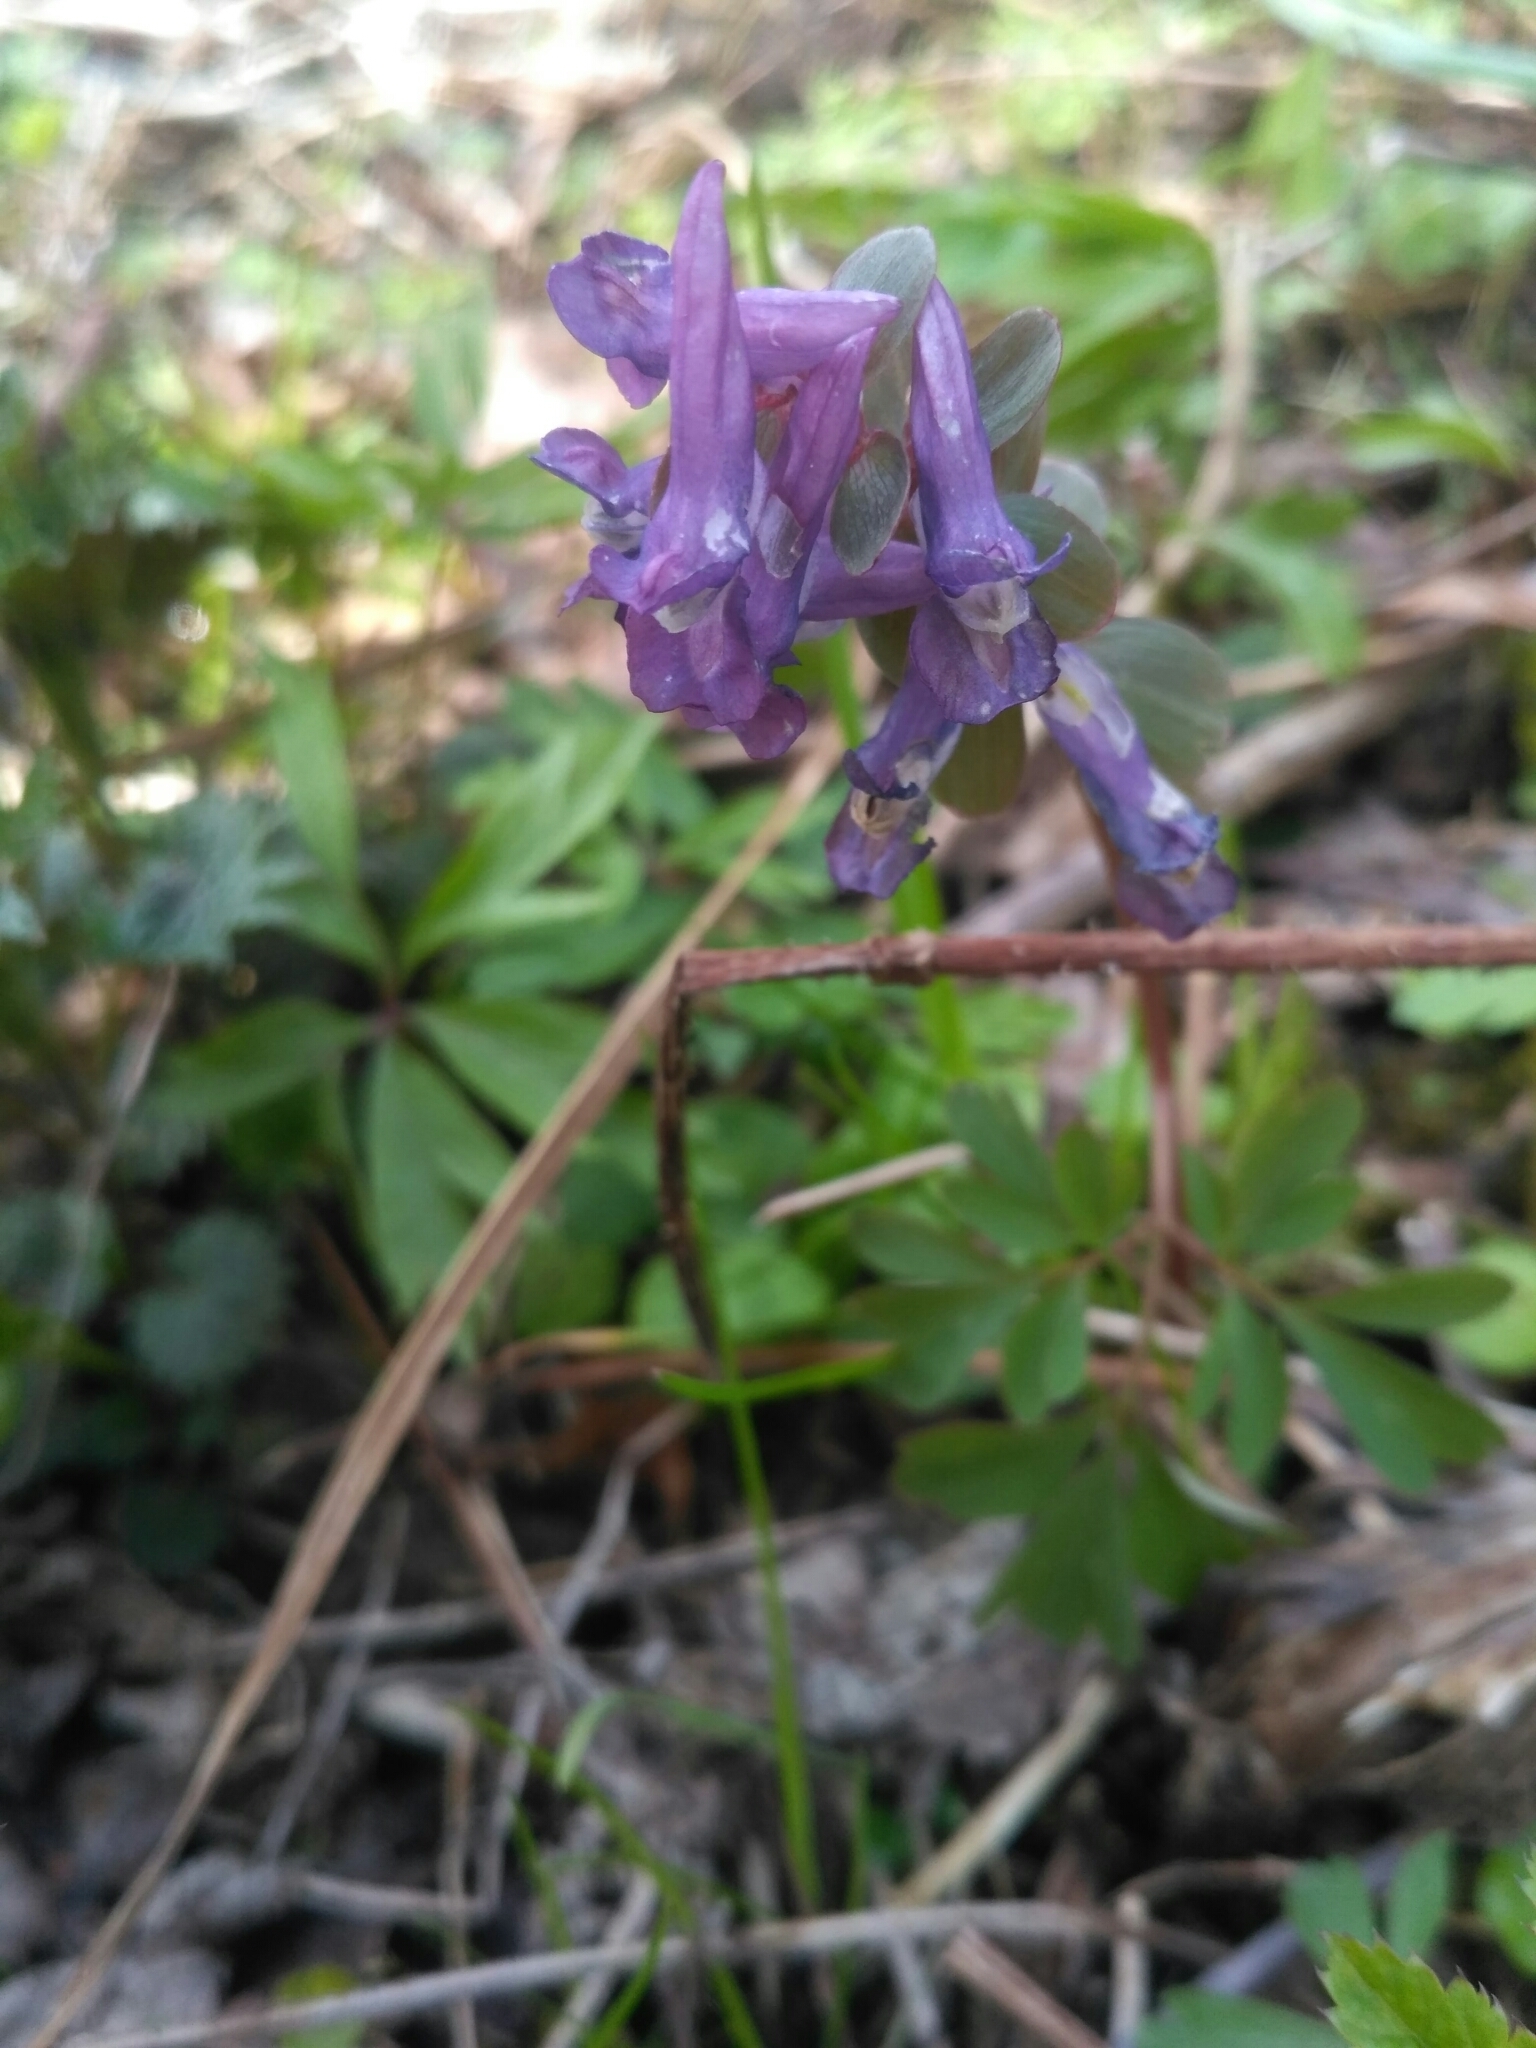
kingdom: Plantae
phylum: Tracheophyta
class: Magnoliopsida
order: Ranunculales
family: Papaveraceae
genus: Corydalis
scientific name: Corydalis solida
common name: Bird-in-a-bush
